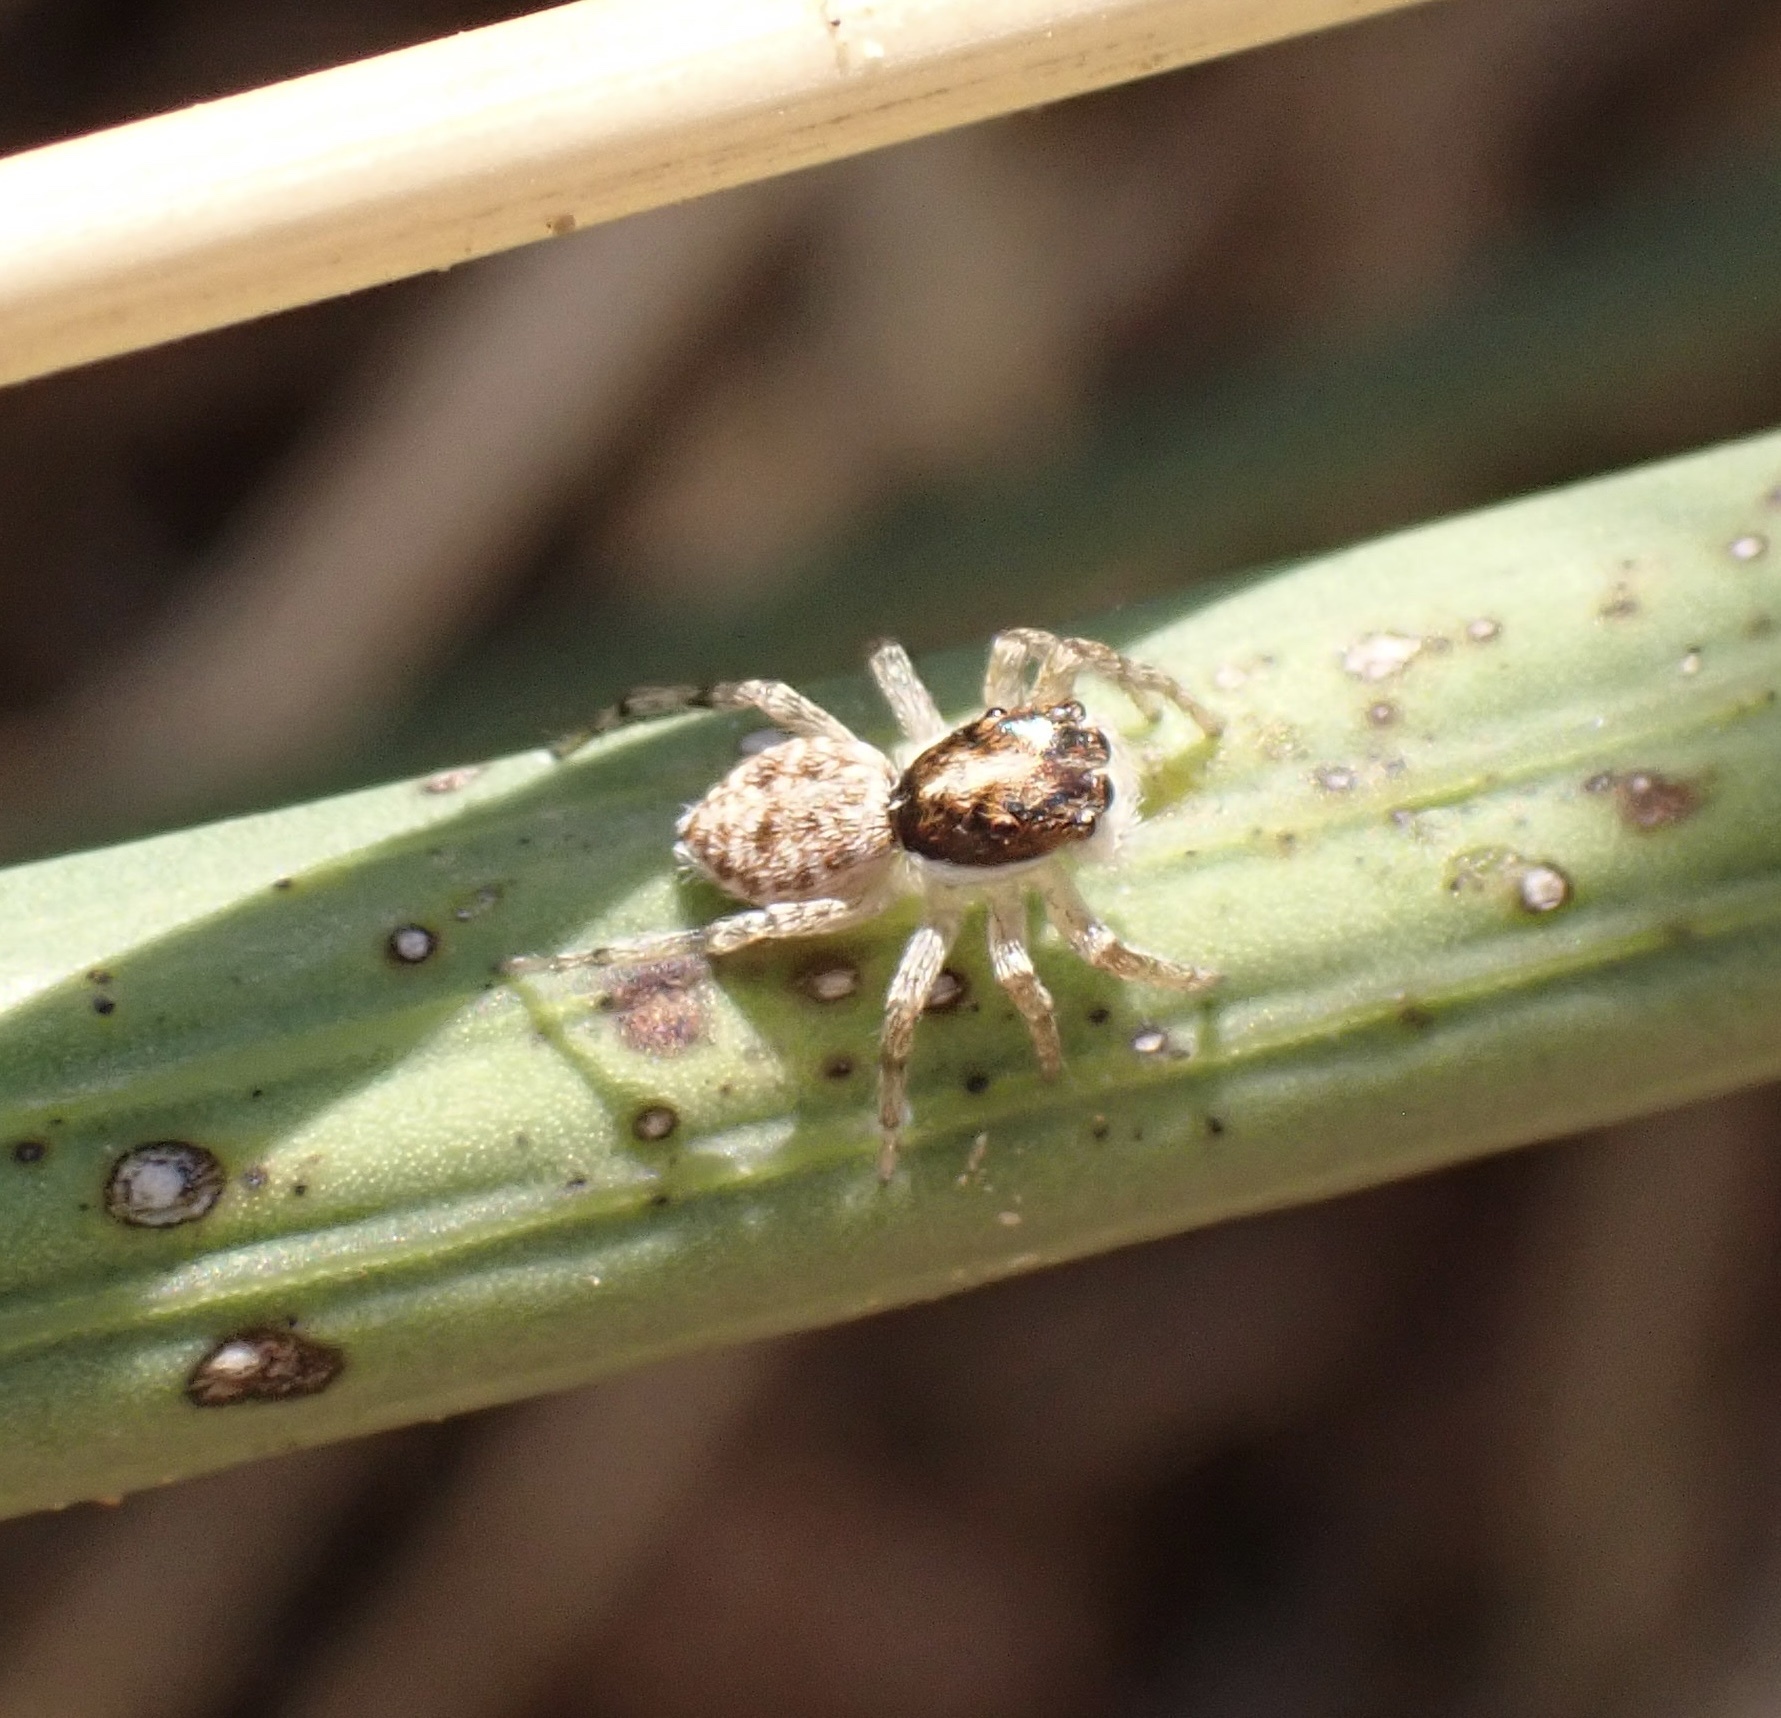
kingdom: Animalia
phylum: Arthropoda
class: Arachnida
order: Araneae
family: Salticidae
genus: Menemerus
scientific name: Menemerus semilimbatus
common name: Jumping spider
